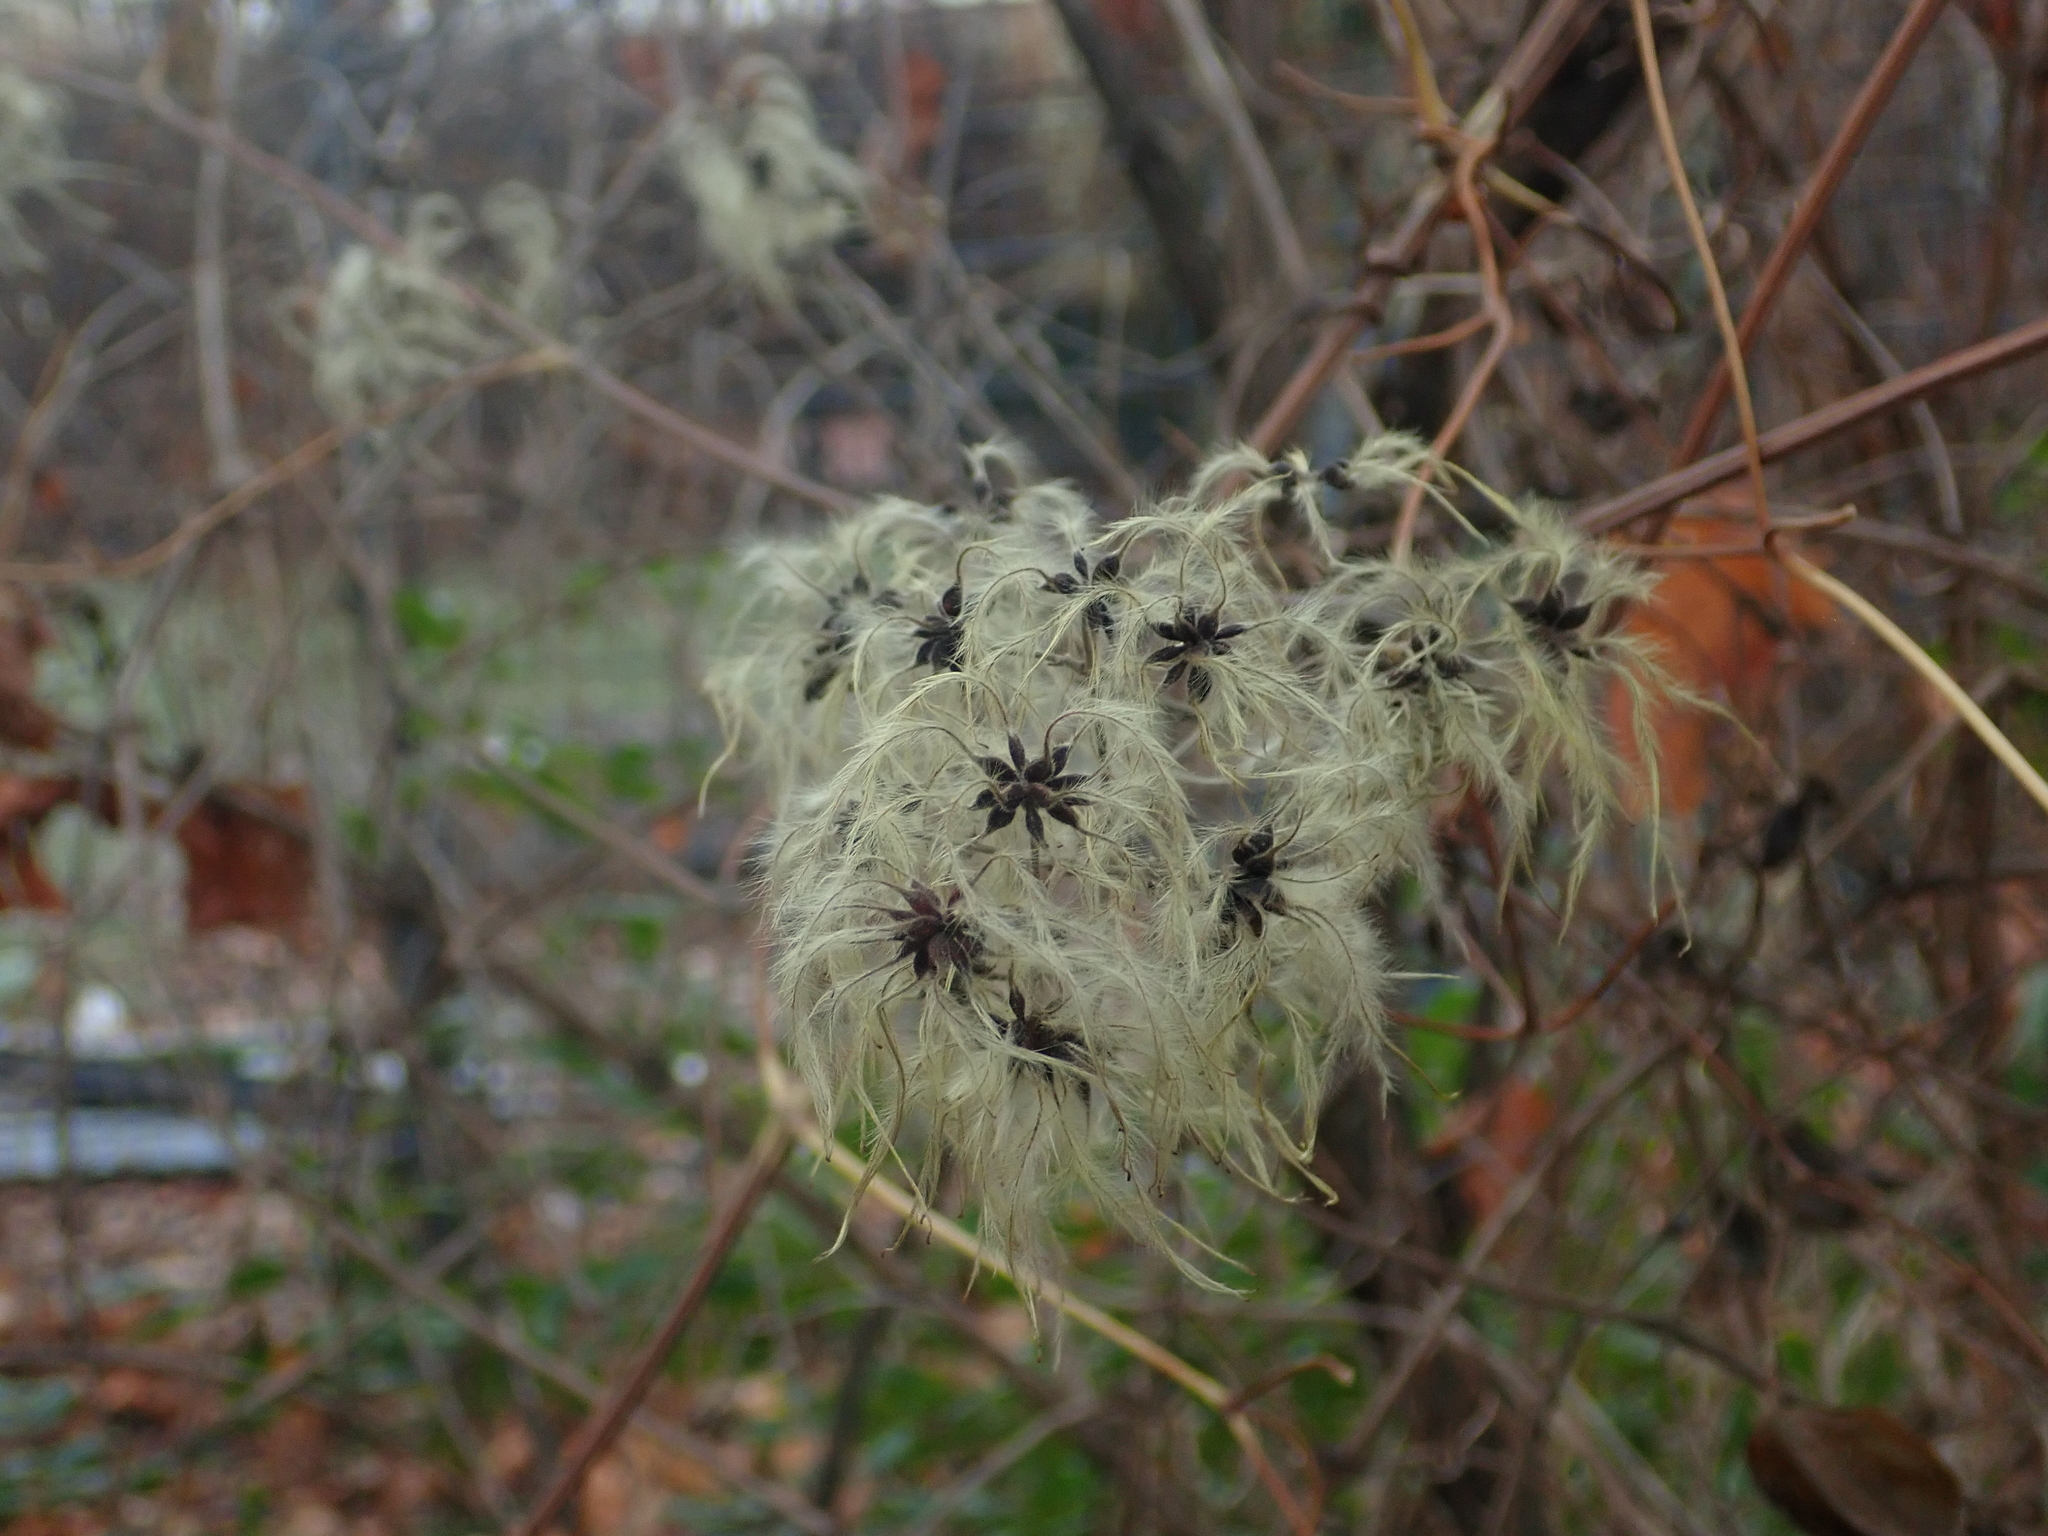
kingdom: Plantae
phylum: Tracheophyta
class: Magnoliopsida
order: Ranunculales
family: Ranunculaceae
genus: Clematis
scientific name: Clematis vitalba
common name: Evergreen clematis
